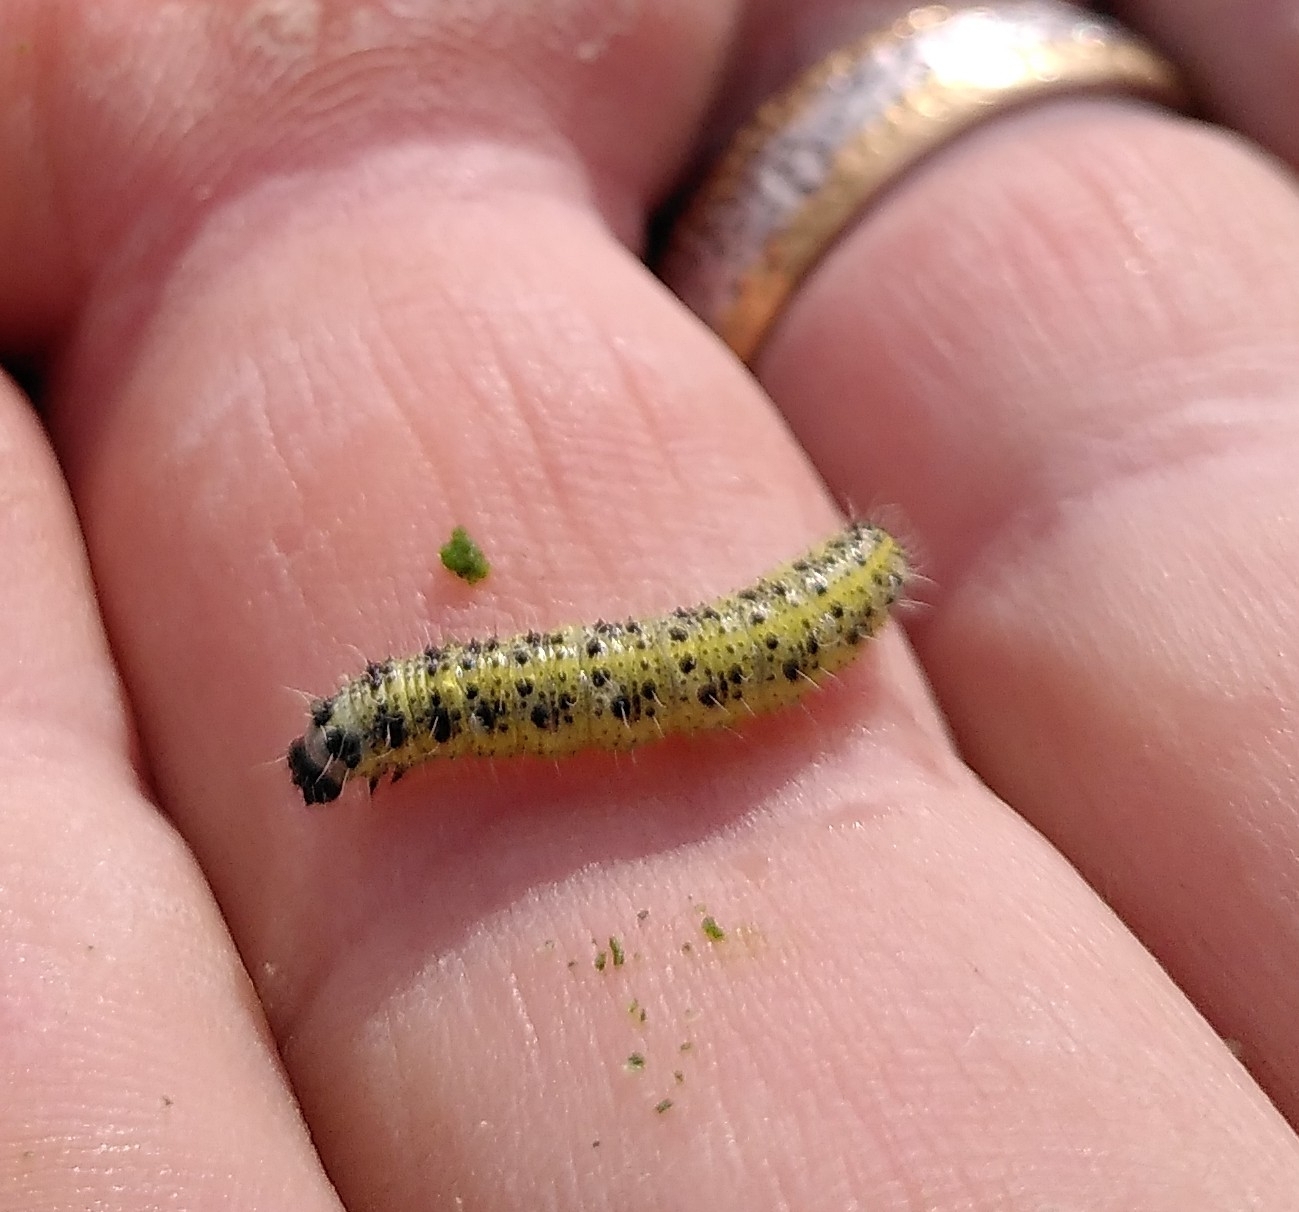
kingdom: Animalia
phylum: Arthropoda
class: Insecta
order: Lepidoptera
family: Pieridae
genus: Pieris
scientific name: Pieris brassicae
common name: Large white
